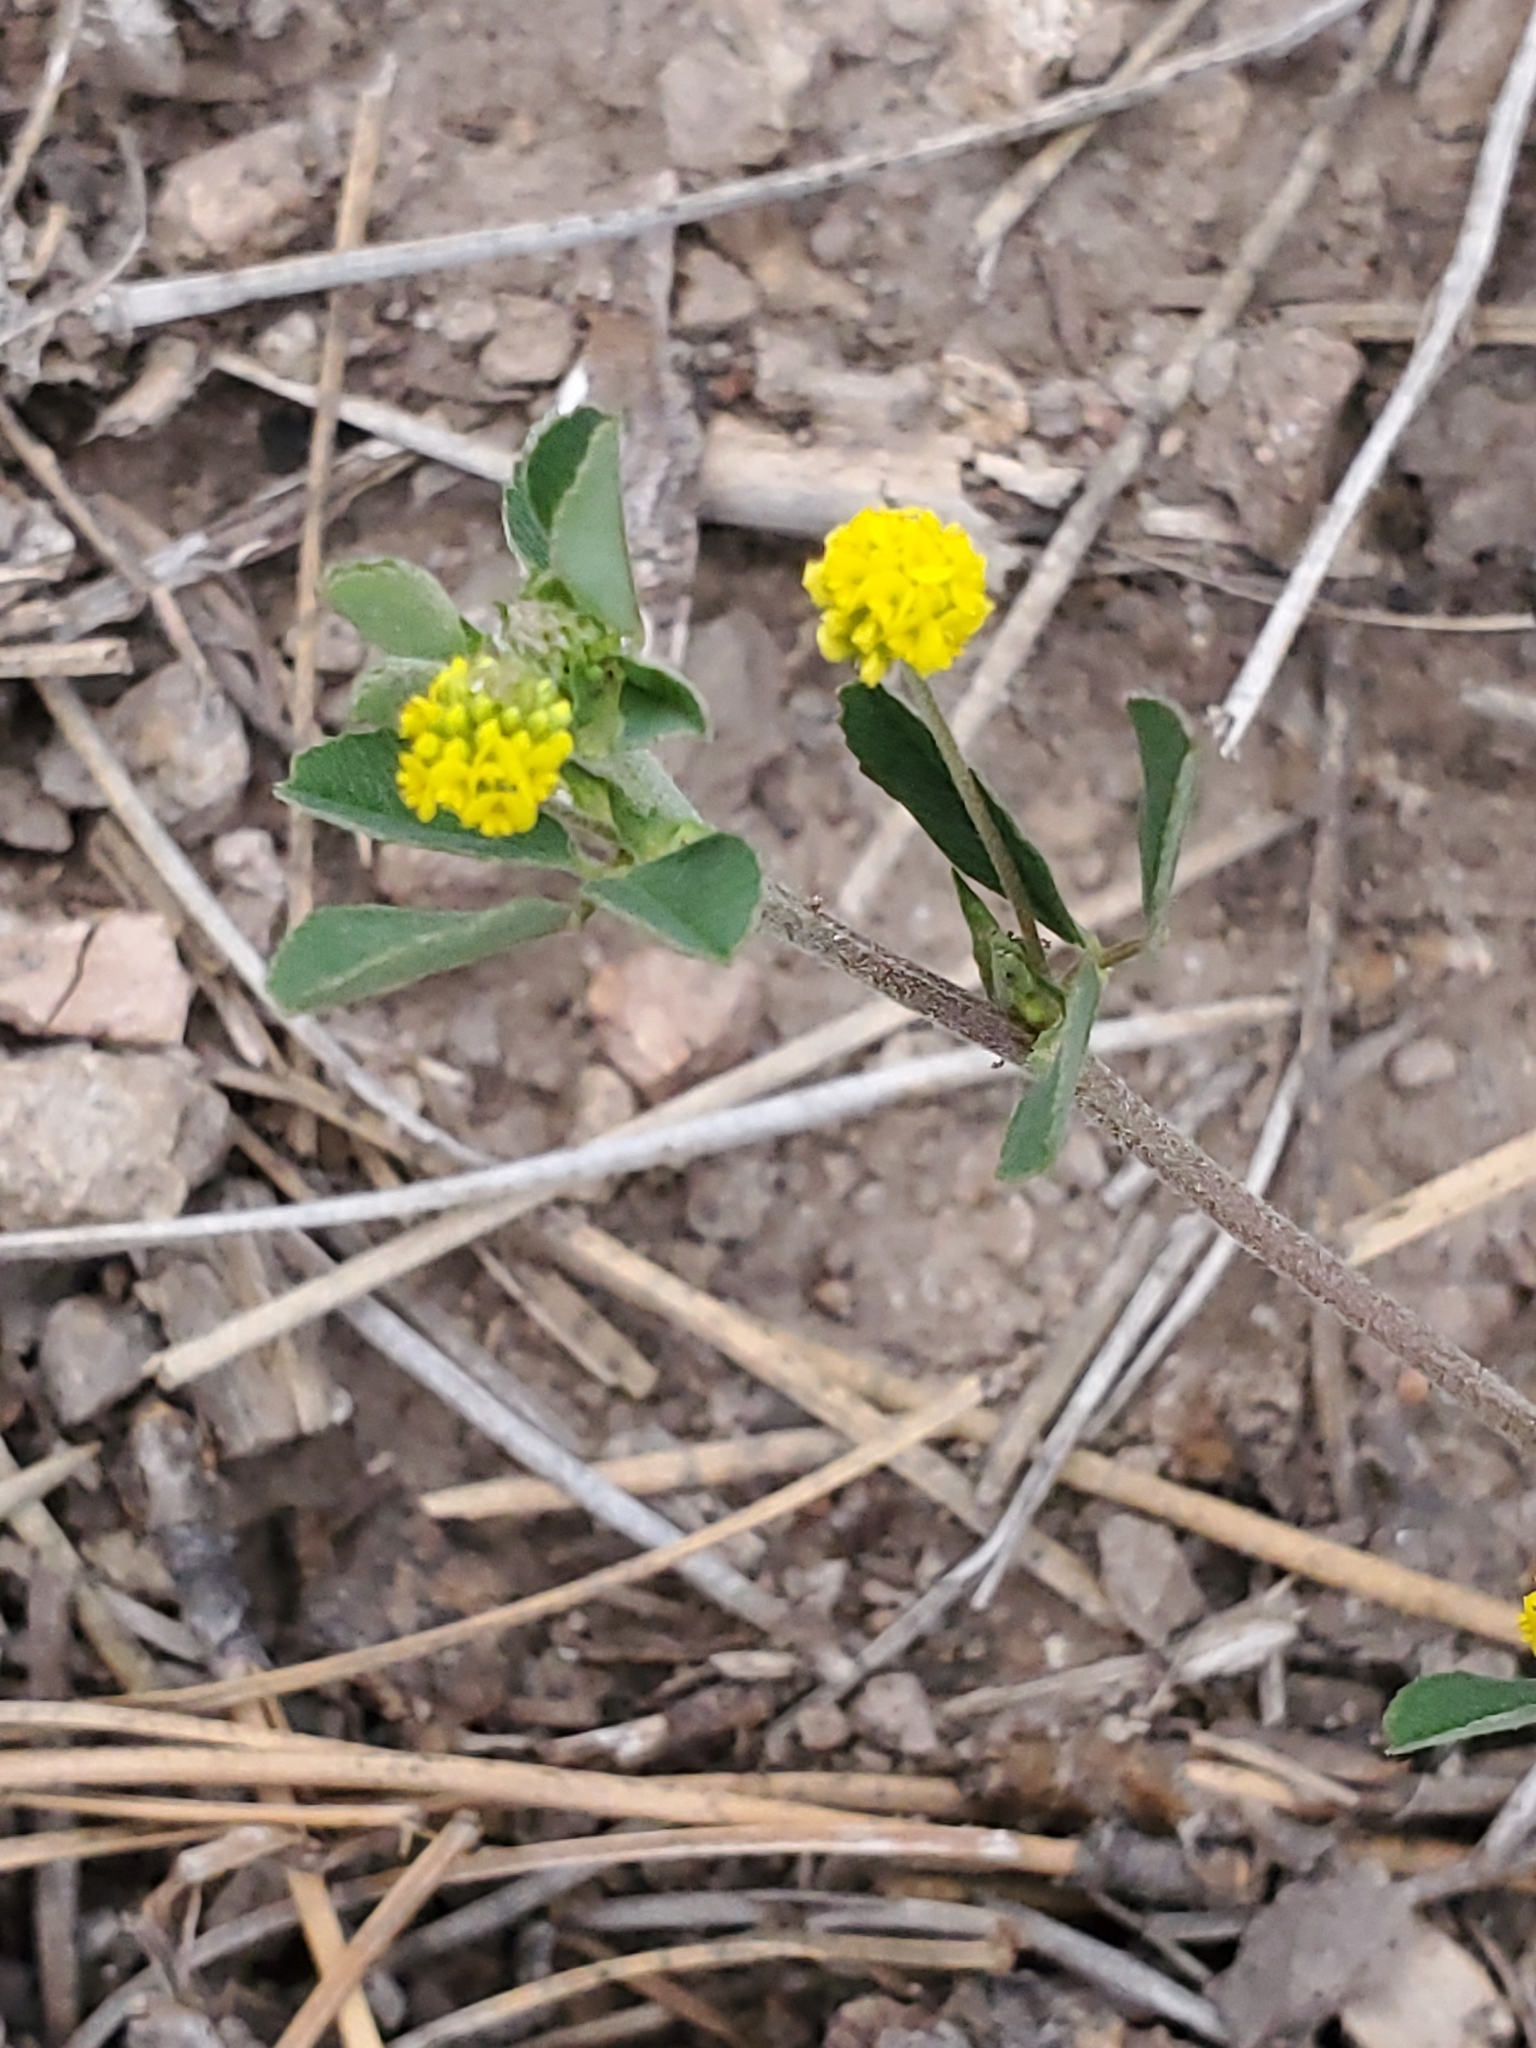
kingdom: Plantae
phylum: Tracheophyta
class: Magnoliopsida
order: Fabales
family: Fabaceae
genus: Medicago
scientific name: Medicago lupulina
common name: Black medick
